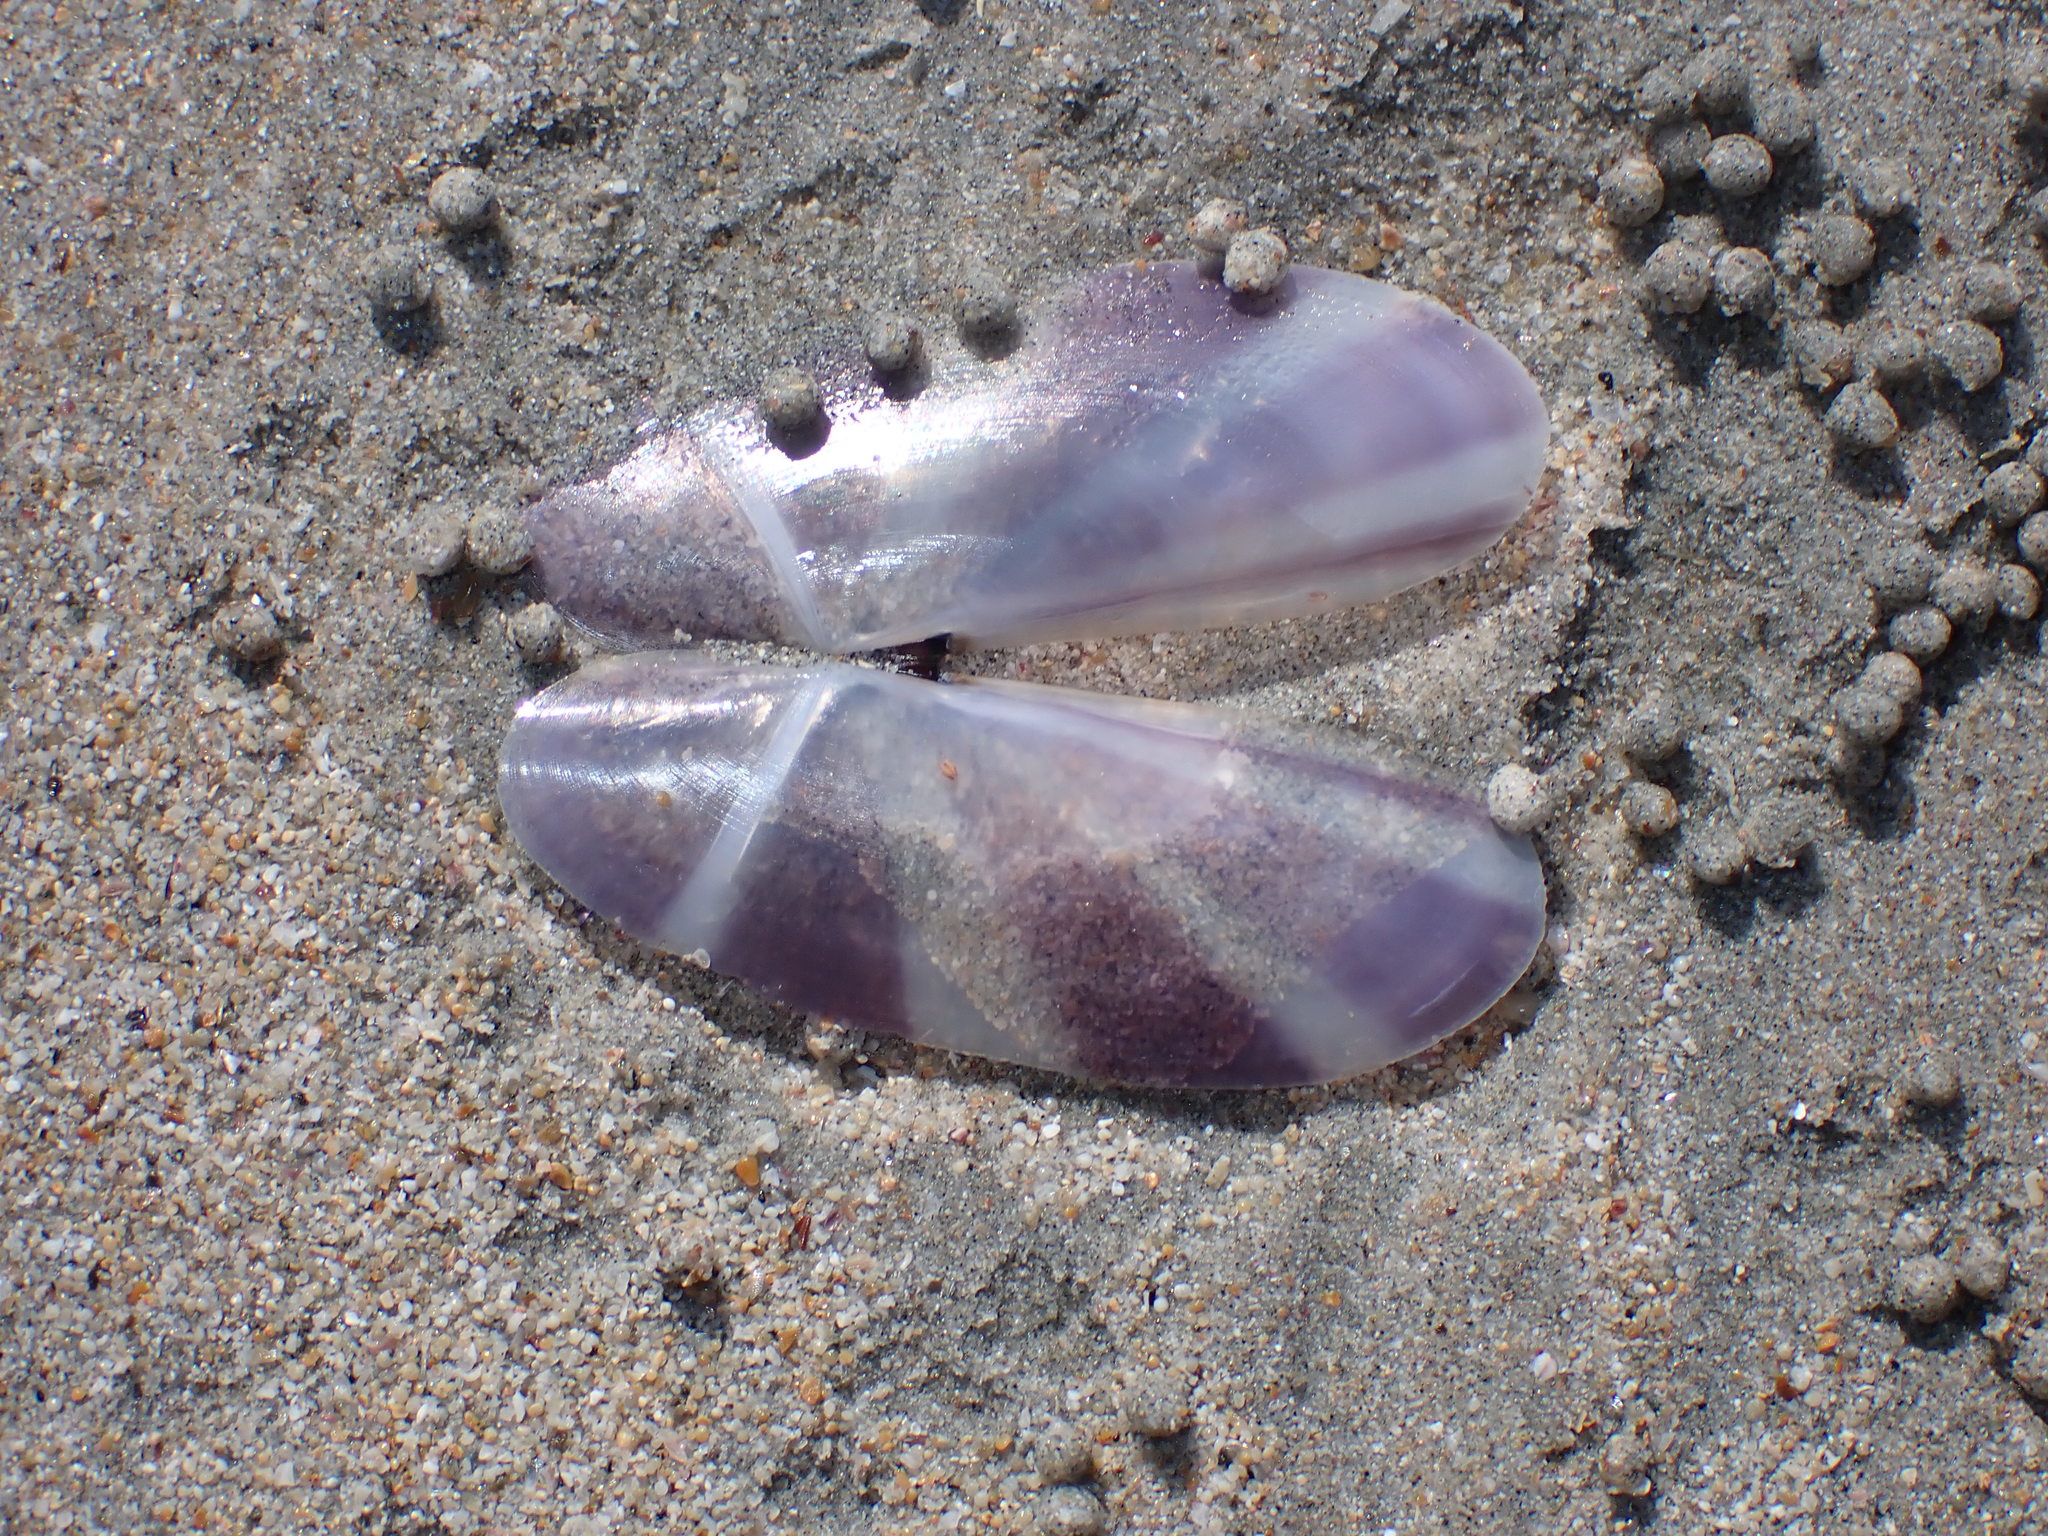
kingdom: Animalia
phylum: Mollusca
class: Bivalvia
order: Adapedonta
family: Pharidae
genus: Siliqua
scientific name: Siliqua radiata
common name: Sunset razor clam
